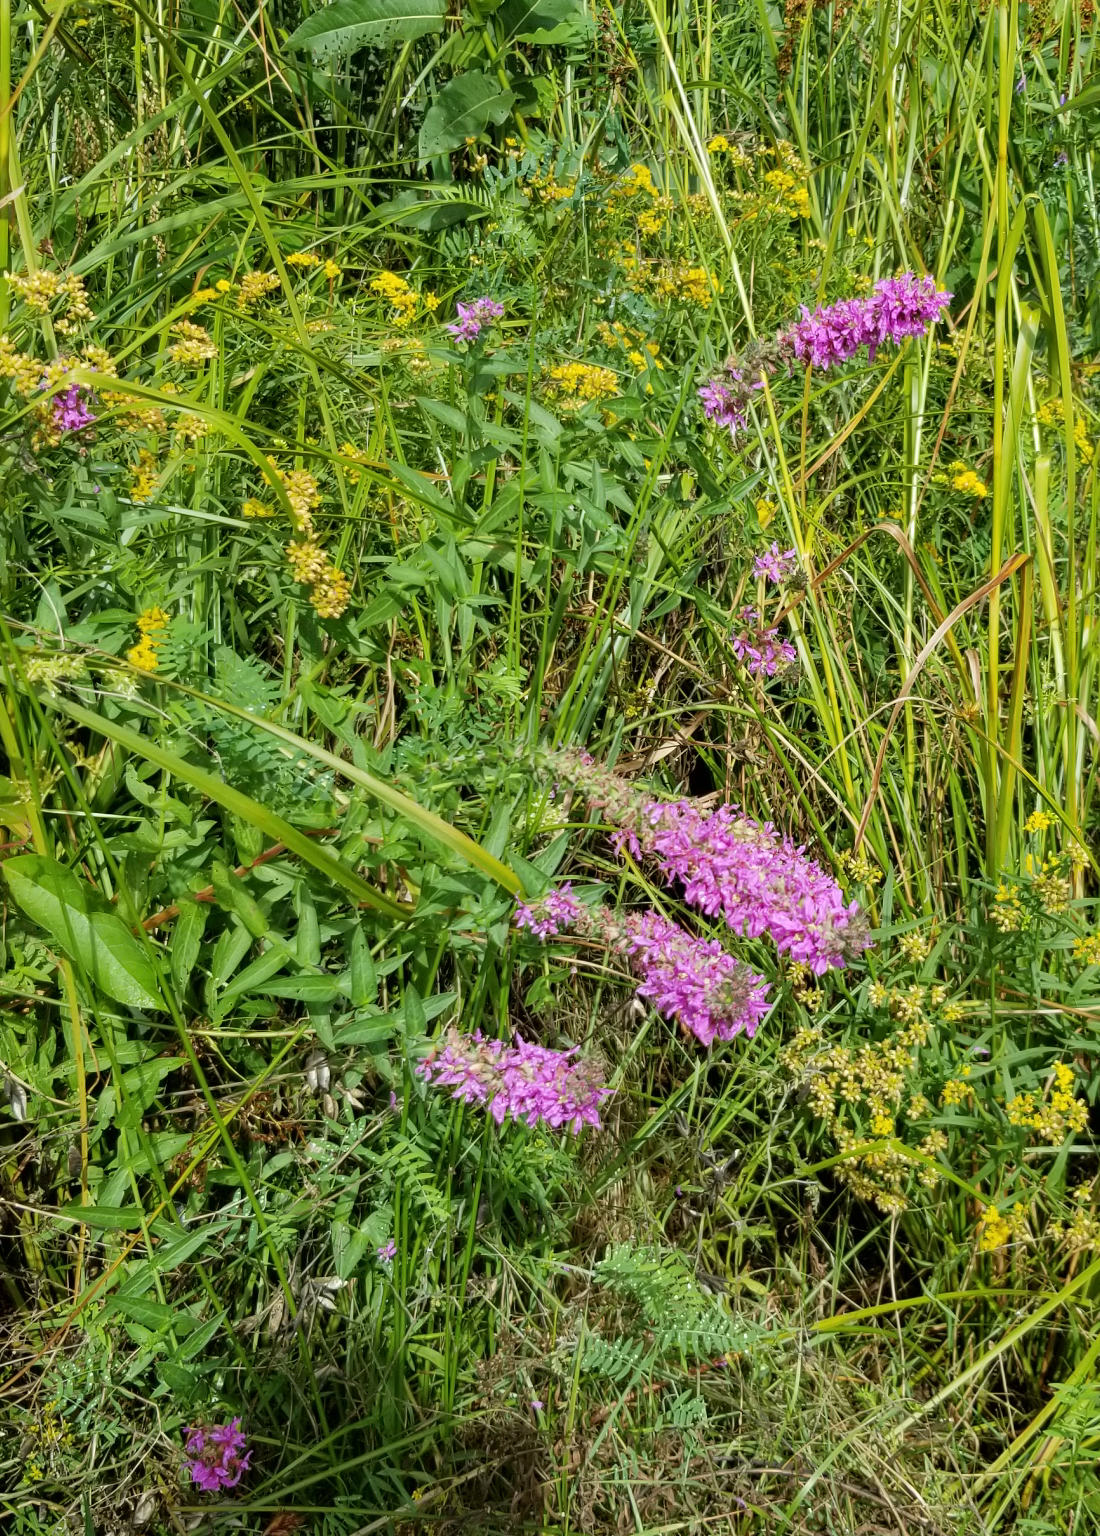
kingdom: Plantae
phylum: Tracheophyta
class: Magnoliopsida
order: Myrtales
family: Lythraceae
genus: Lythrum
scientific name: Lythrum salicaria
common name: Purple loosestrife
